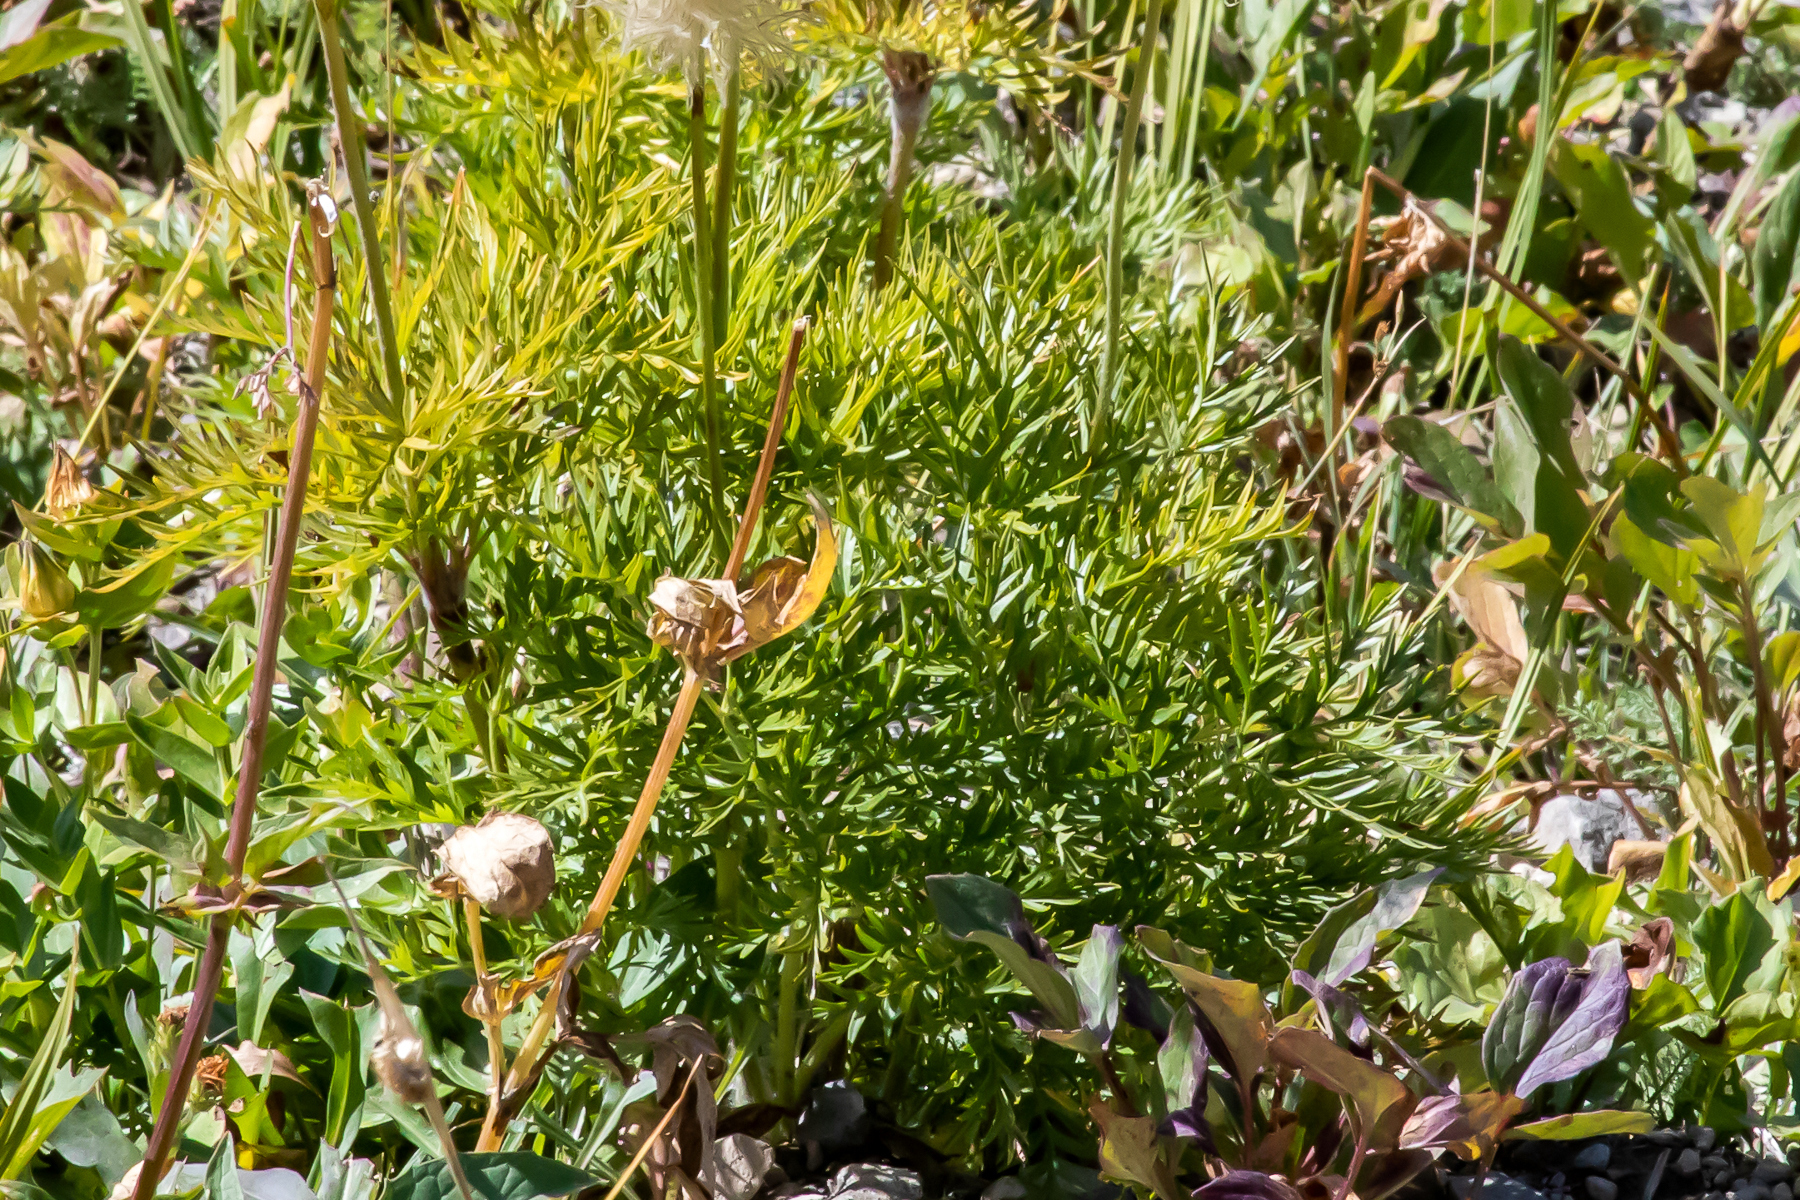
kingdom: Plantae
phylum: Tracheophyta
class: Magnoliopsida
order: Ranunculales
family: Ranunculaceae
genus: Pulsatilla
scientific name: Pulsatilla occidentalis
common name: Mountain pasqueflower
